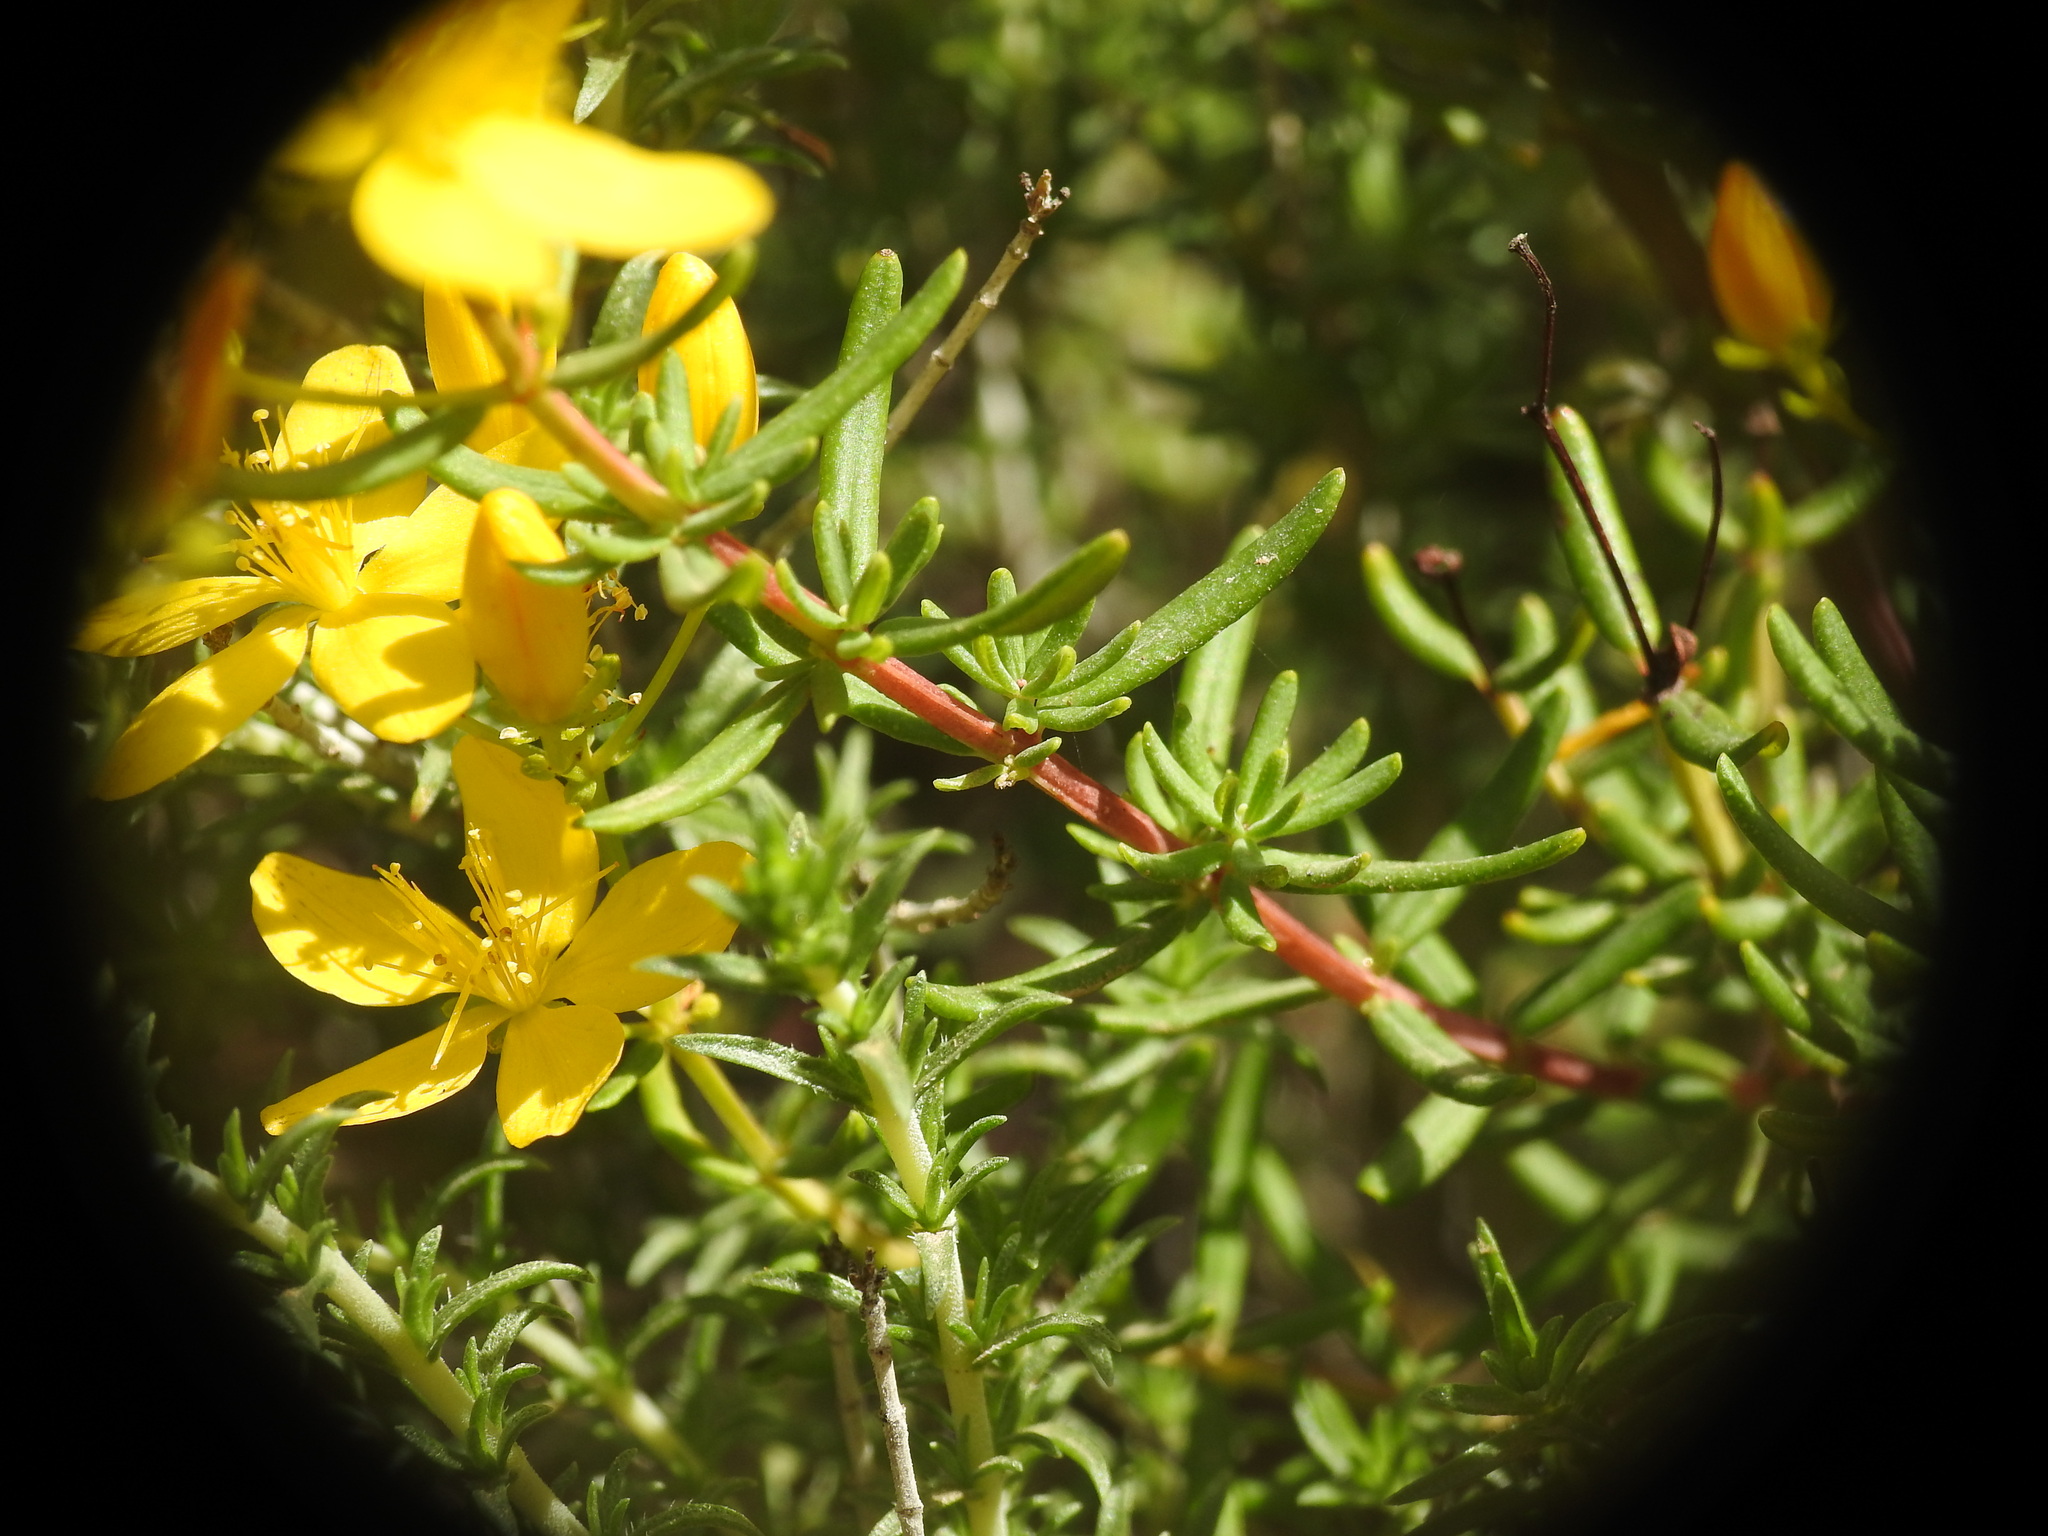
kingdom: Plantae
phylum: Tracheophyta
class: Magnoliopsida
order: Malpighiales
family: Hypericaceae
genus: Hypericum
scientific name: Hypericum empetrifolium
